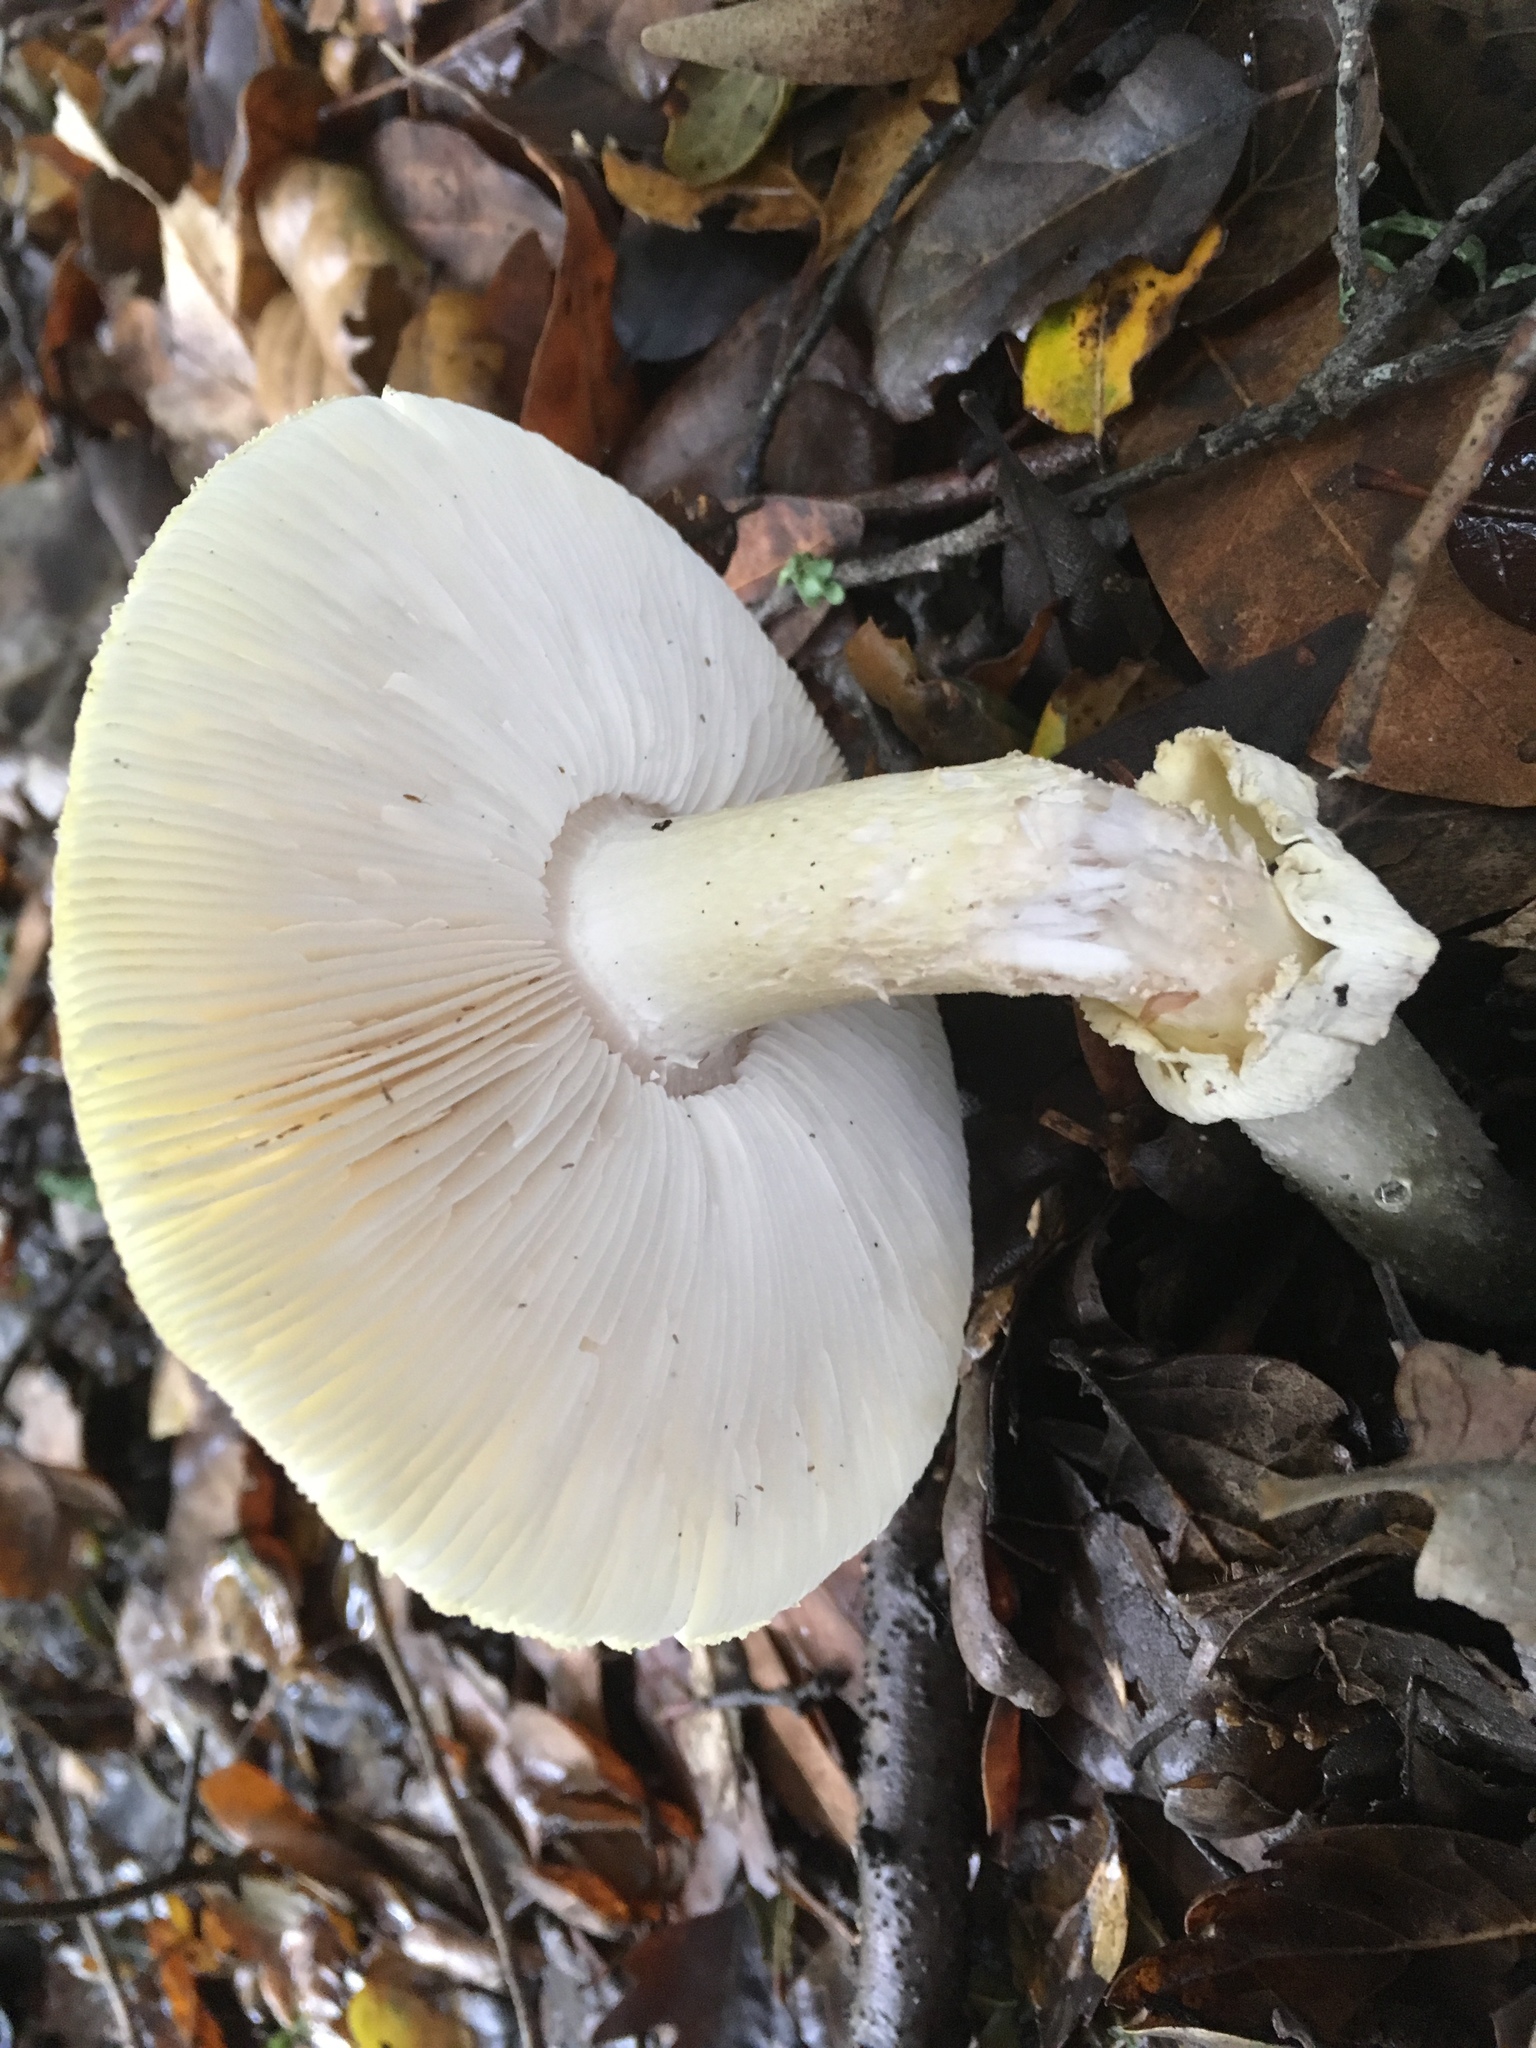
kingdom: Fungi
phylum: Basidiomycota
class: Agaricomycetes
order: Agaricales
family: Amanitaceae
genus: Amanita
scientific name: Amanita phalloides
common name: Death cap
